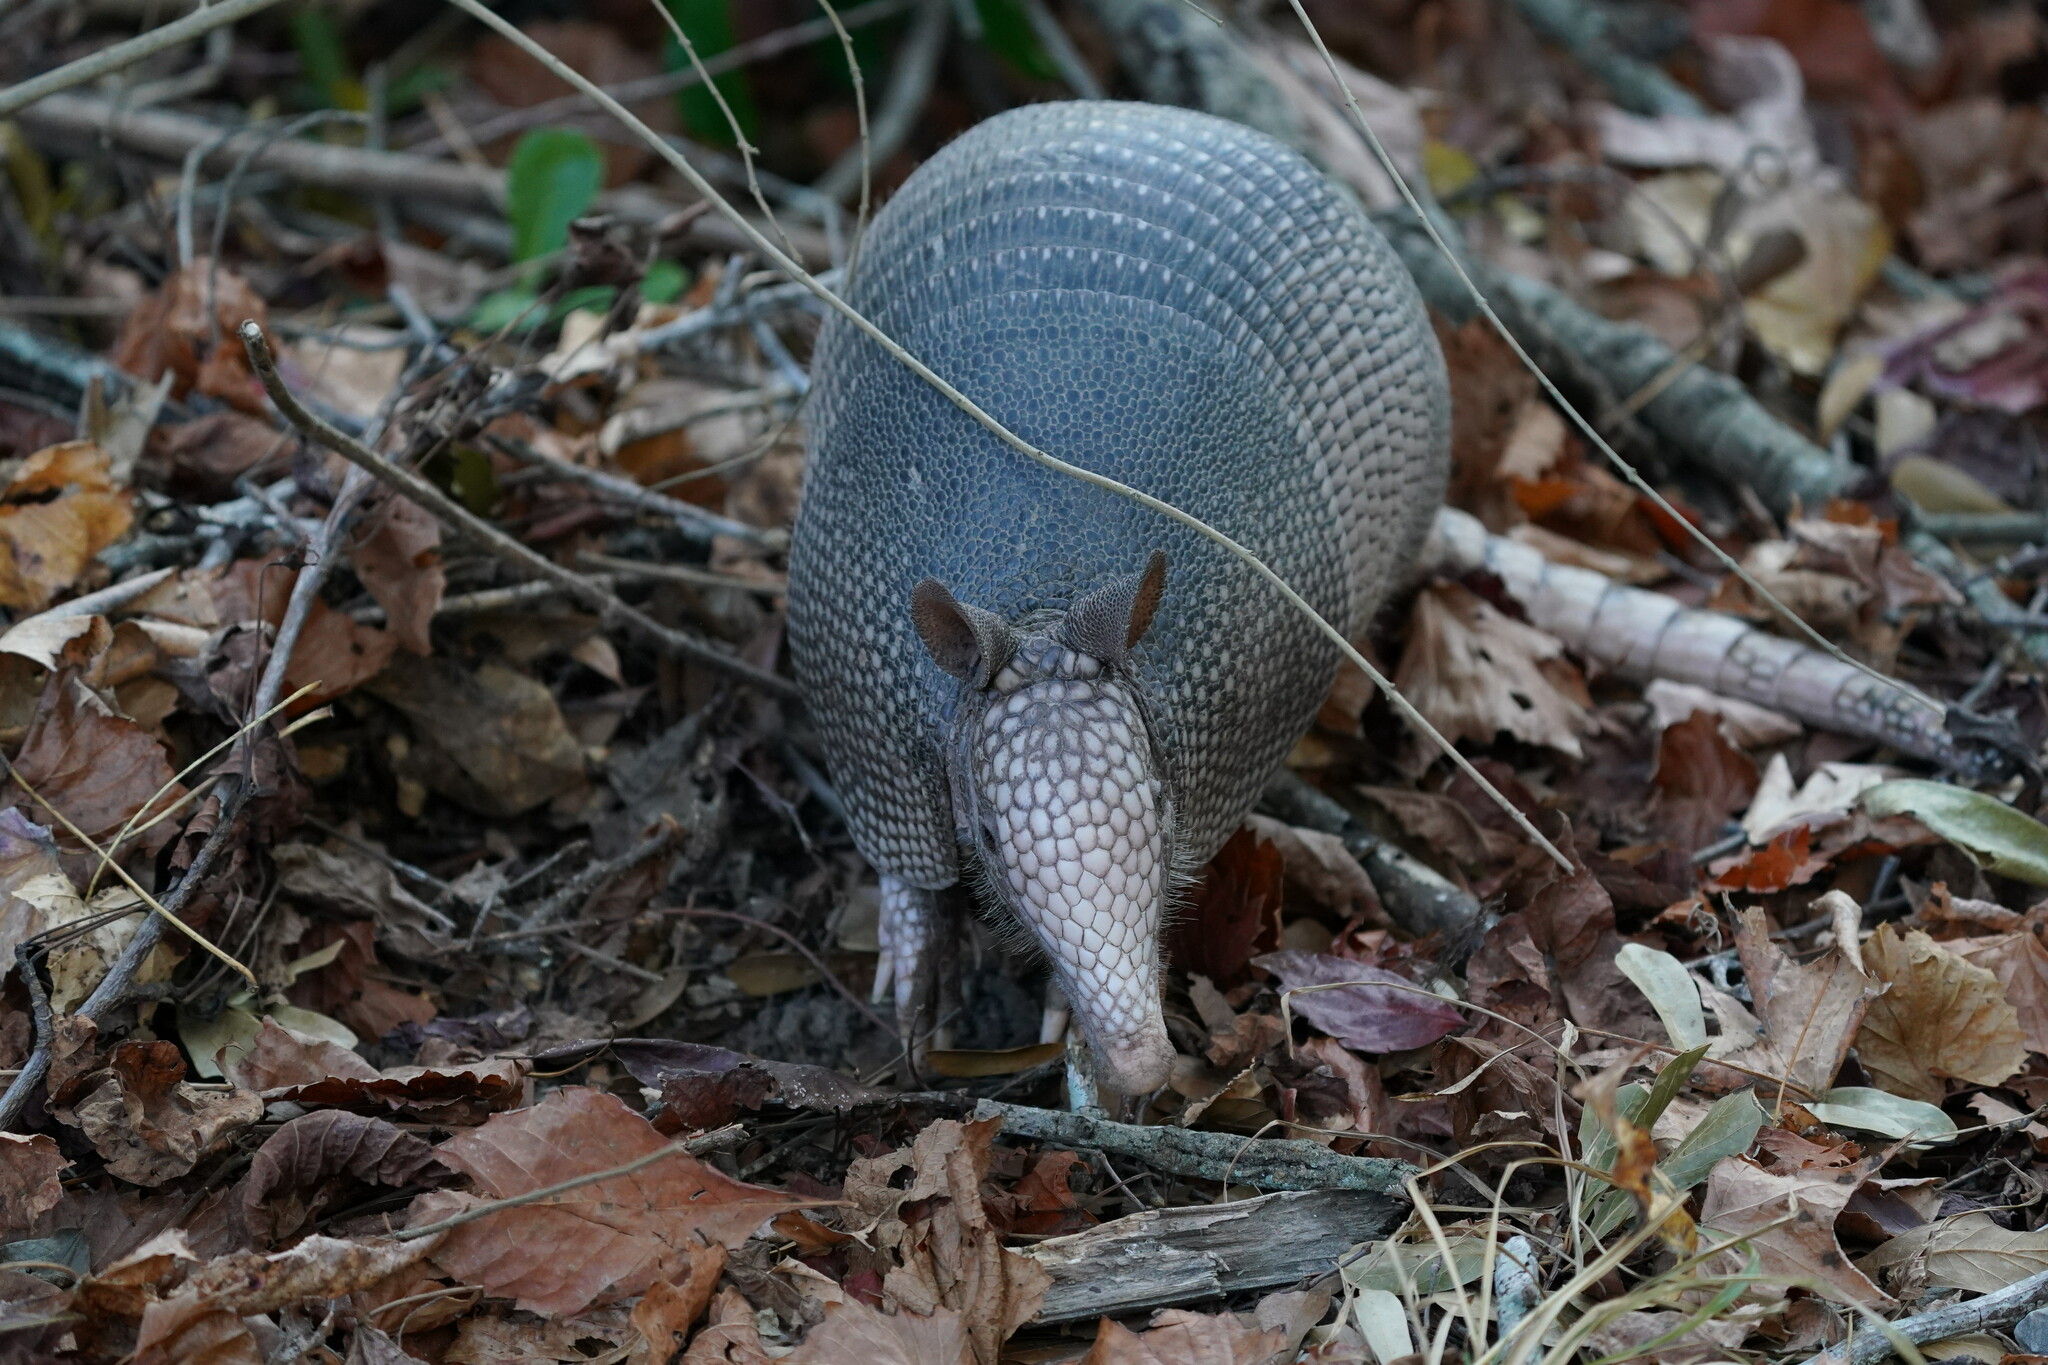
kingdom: Animalia
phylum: Chordata
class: Mammalia
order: Cingulata
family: Dasypodidae
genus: Dasypus
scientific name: Dasypus novemcinctus
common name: Nine-banded armadillo
